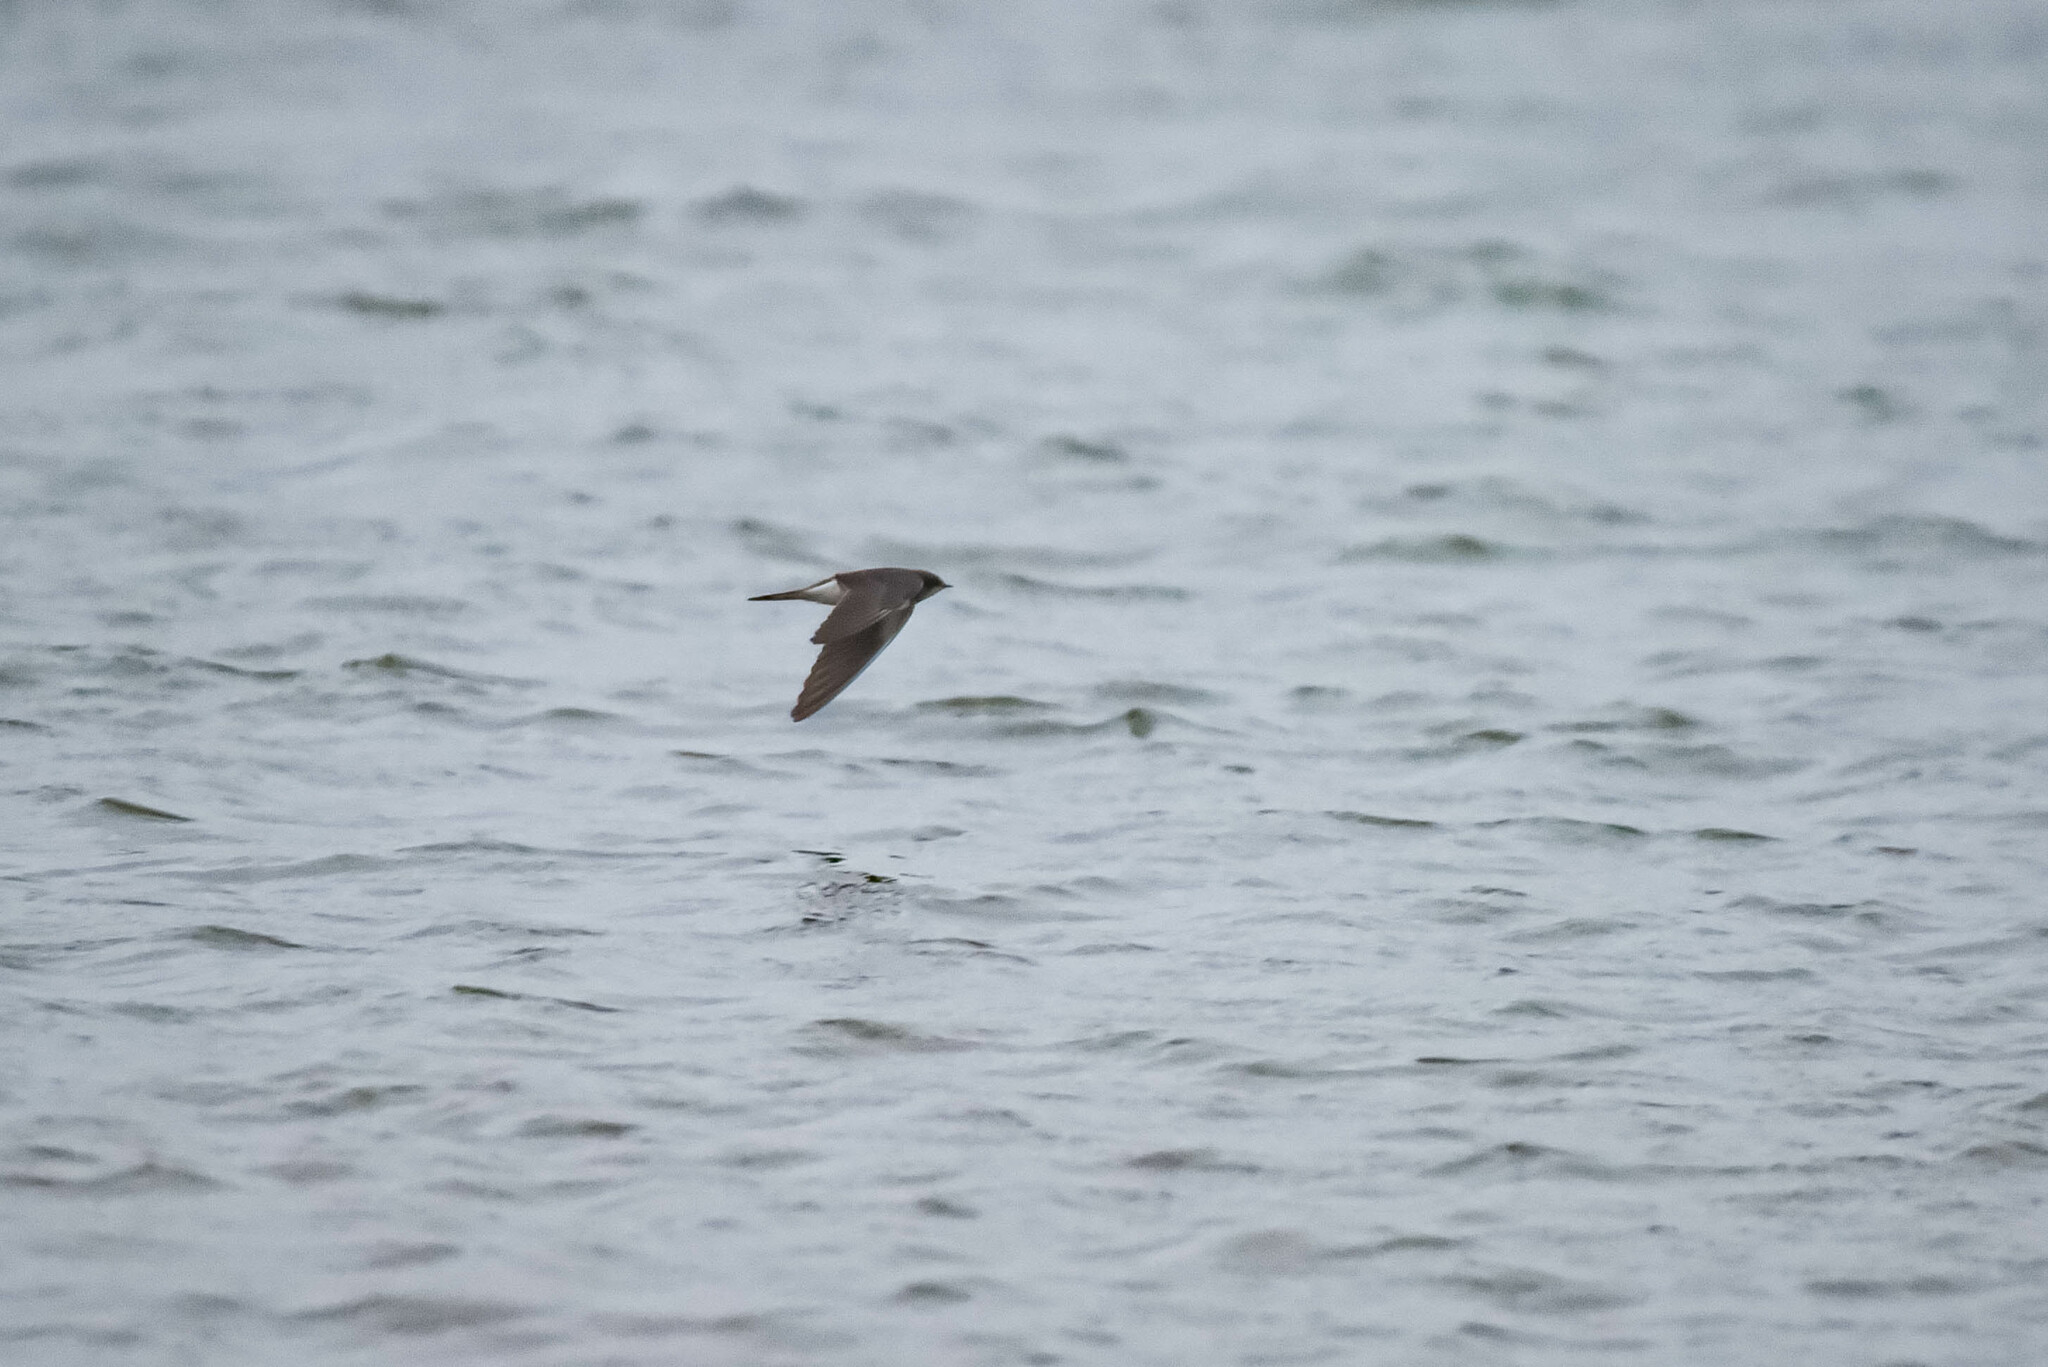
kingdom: Animalia
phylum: Chordata
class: Aves
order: Passeriformes
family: Hirundinidae
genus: Riparia
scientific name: Riparia riparia
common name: Sand martin
